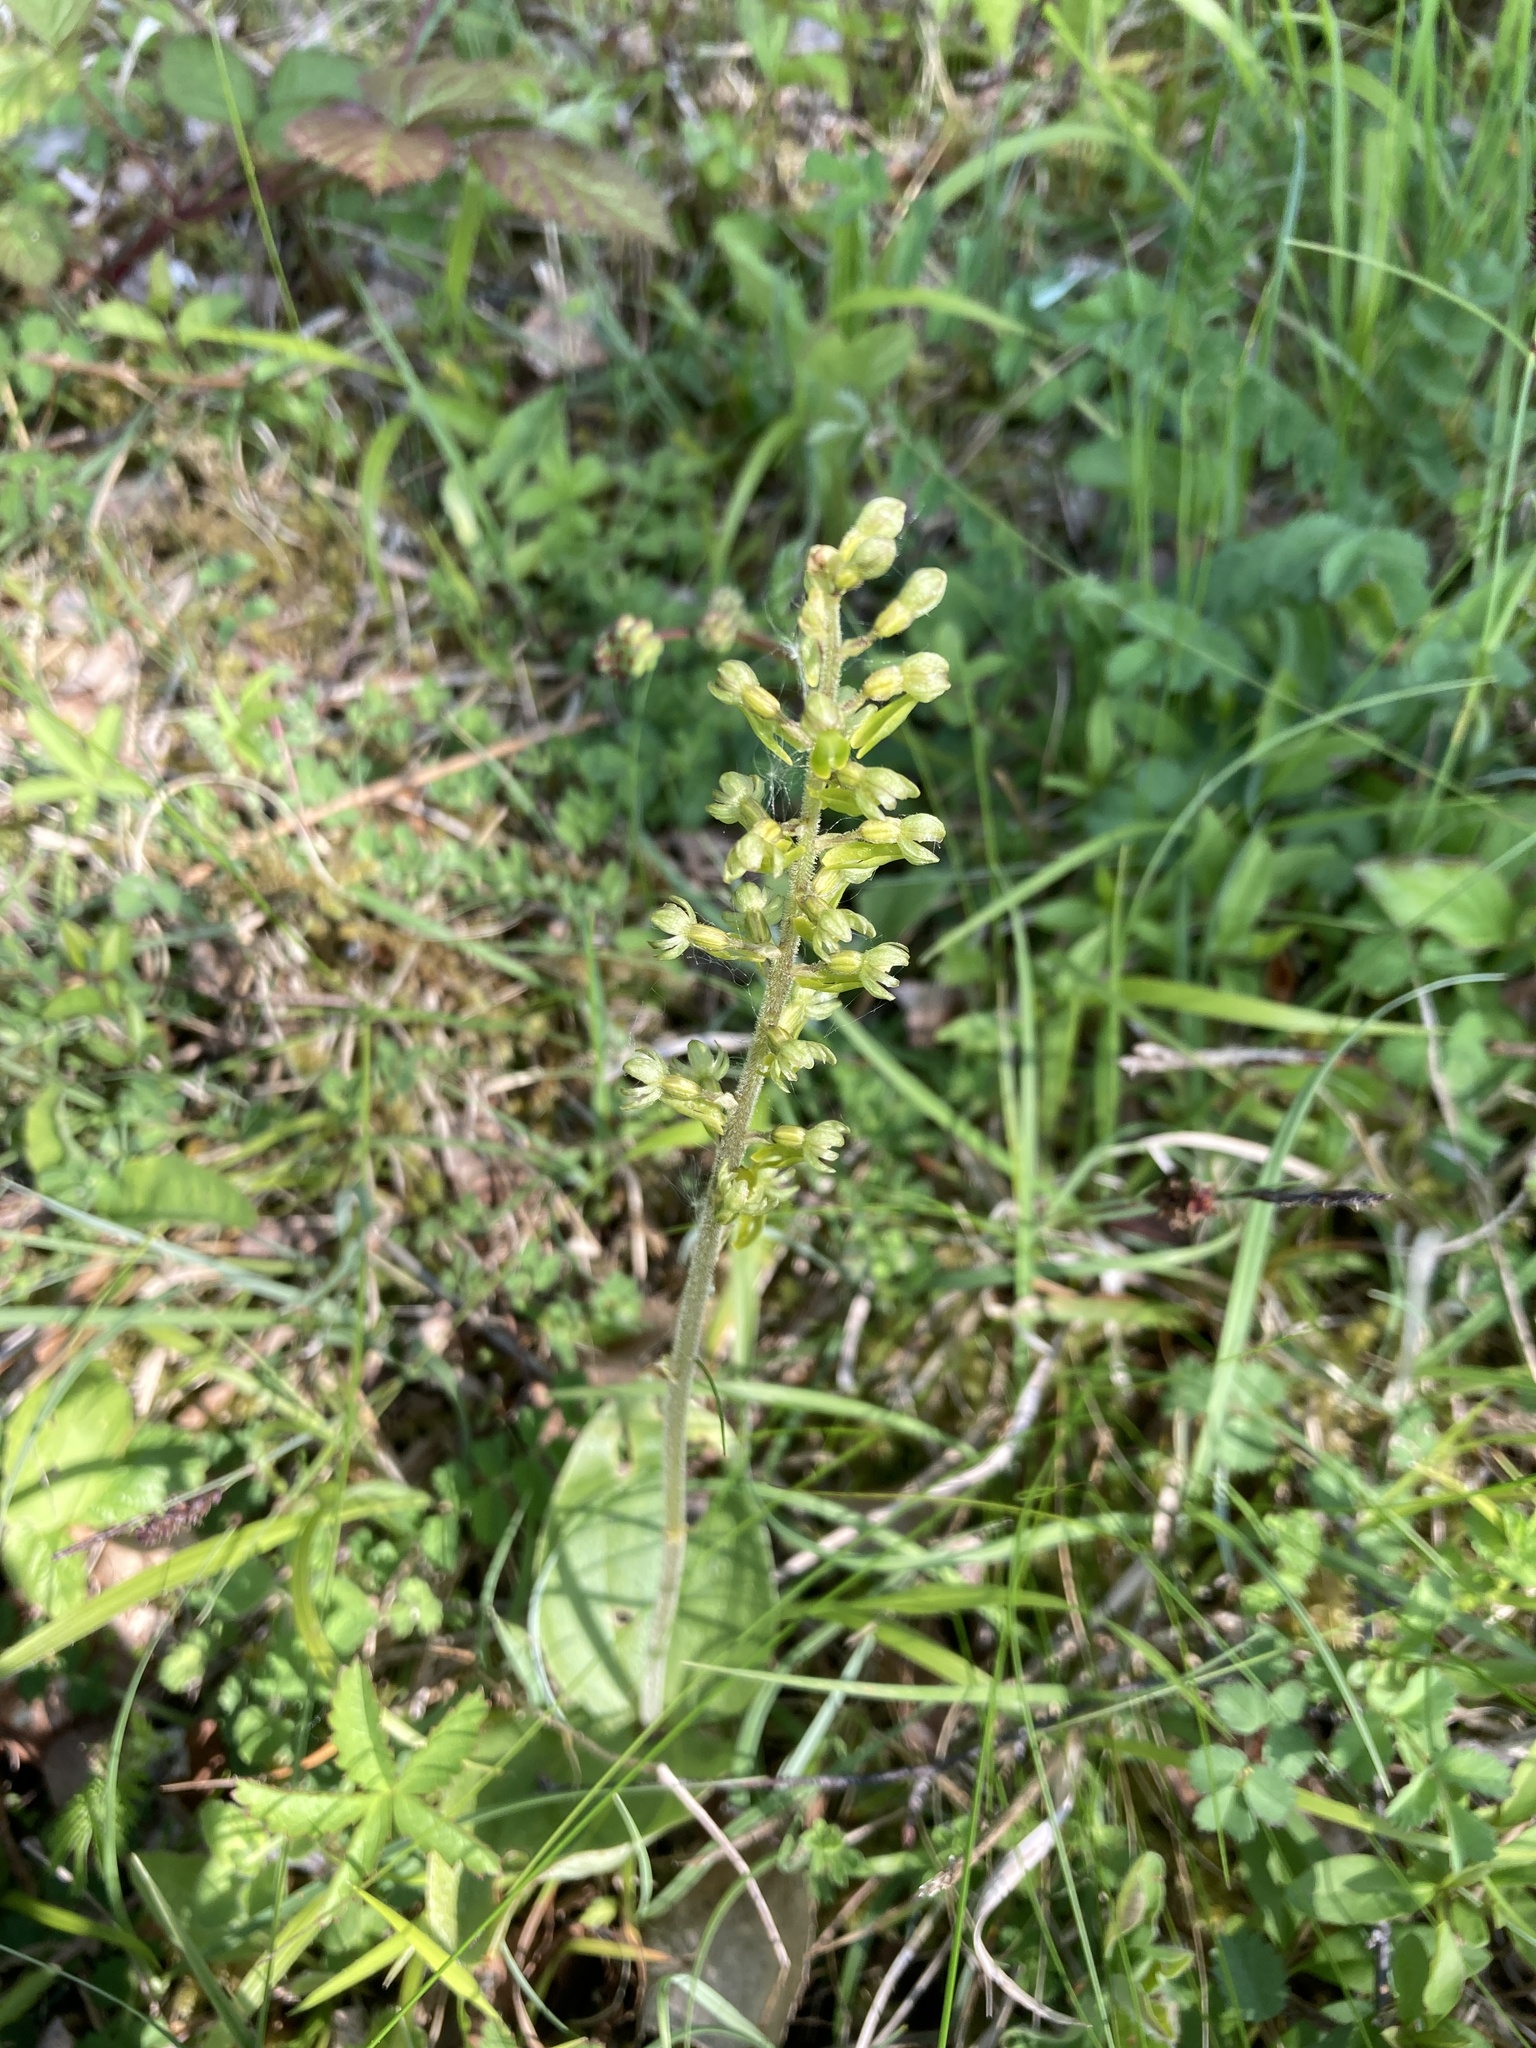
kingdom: Plantae
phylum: Tracheophyta
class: Liliopsida
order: Asparagales
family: Orchidaceae
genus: Neottia
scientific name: Neottia ovata
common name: Common twayblade
